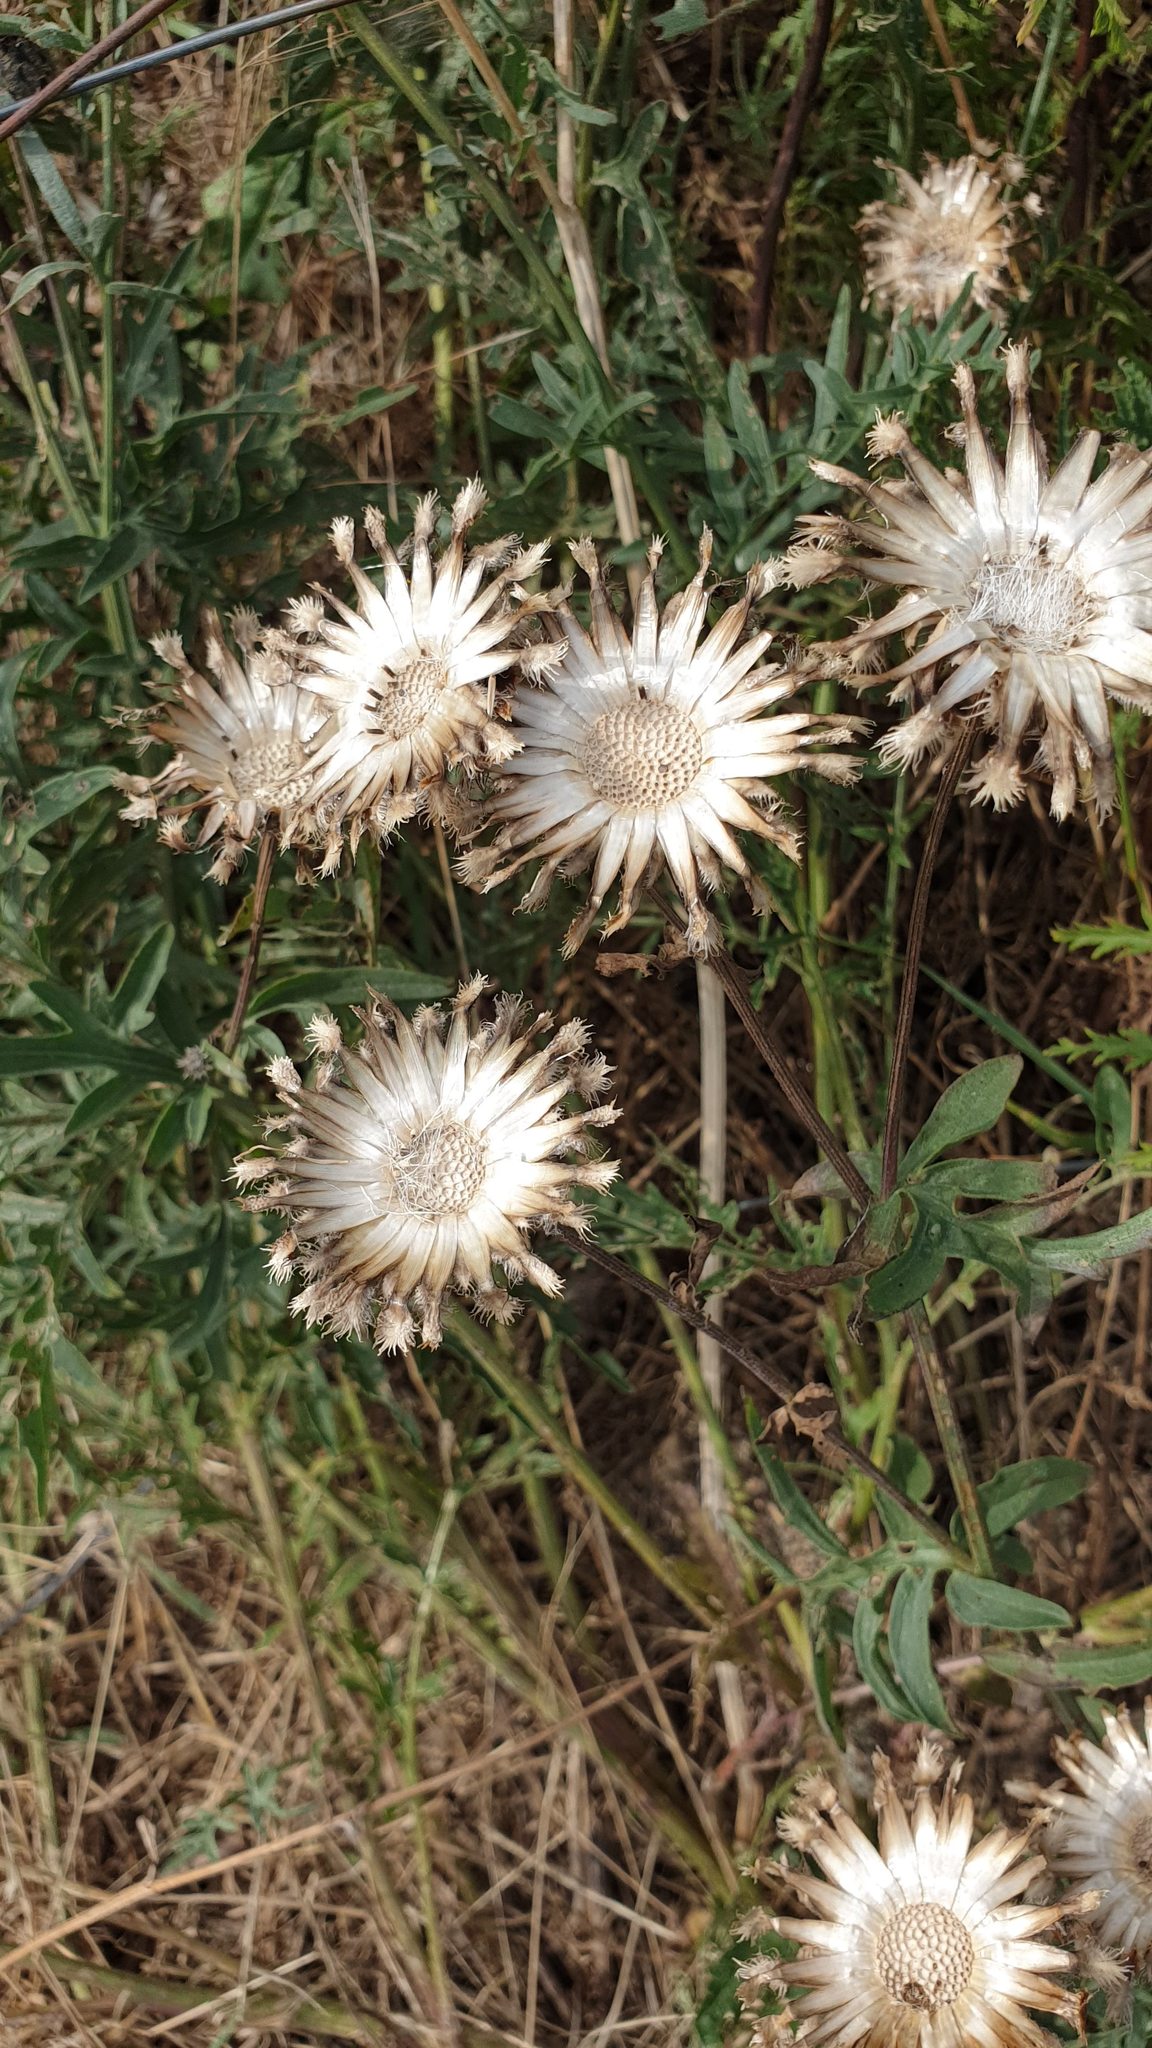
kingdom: Plantae
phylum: Tracheophyta
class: Magnoliopsida
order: Asterales
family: Asteraceae
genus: Centaurea
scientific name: Centaurea scabiosa
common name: Greater knapweed
